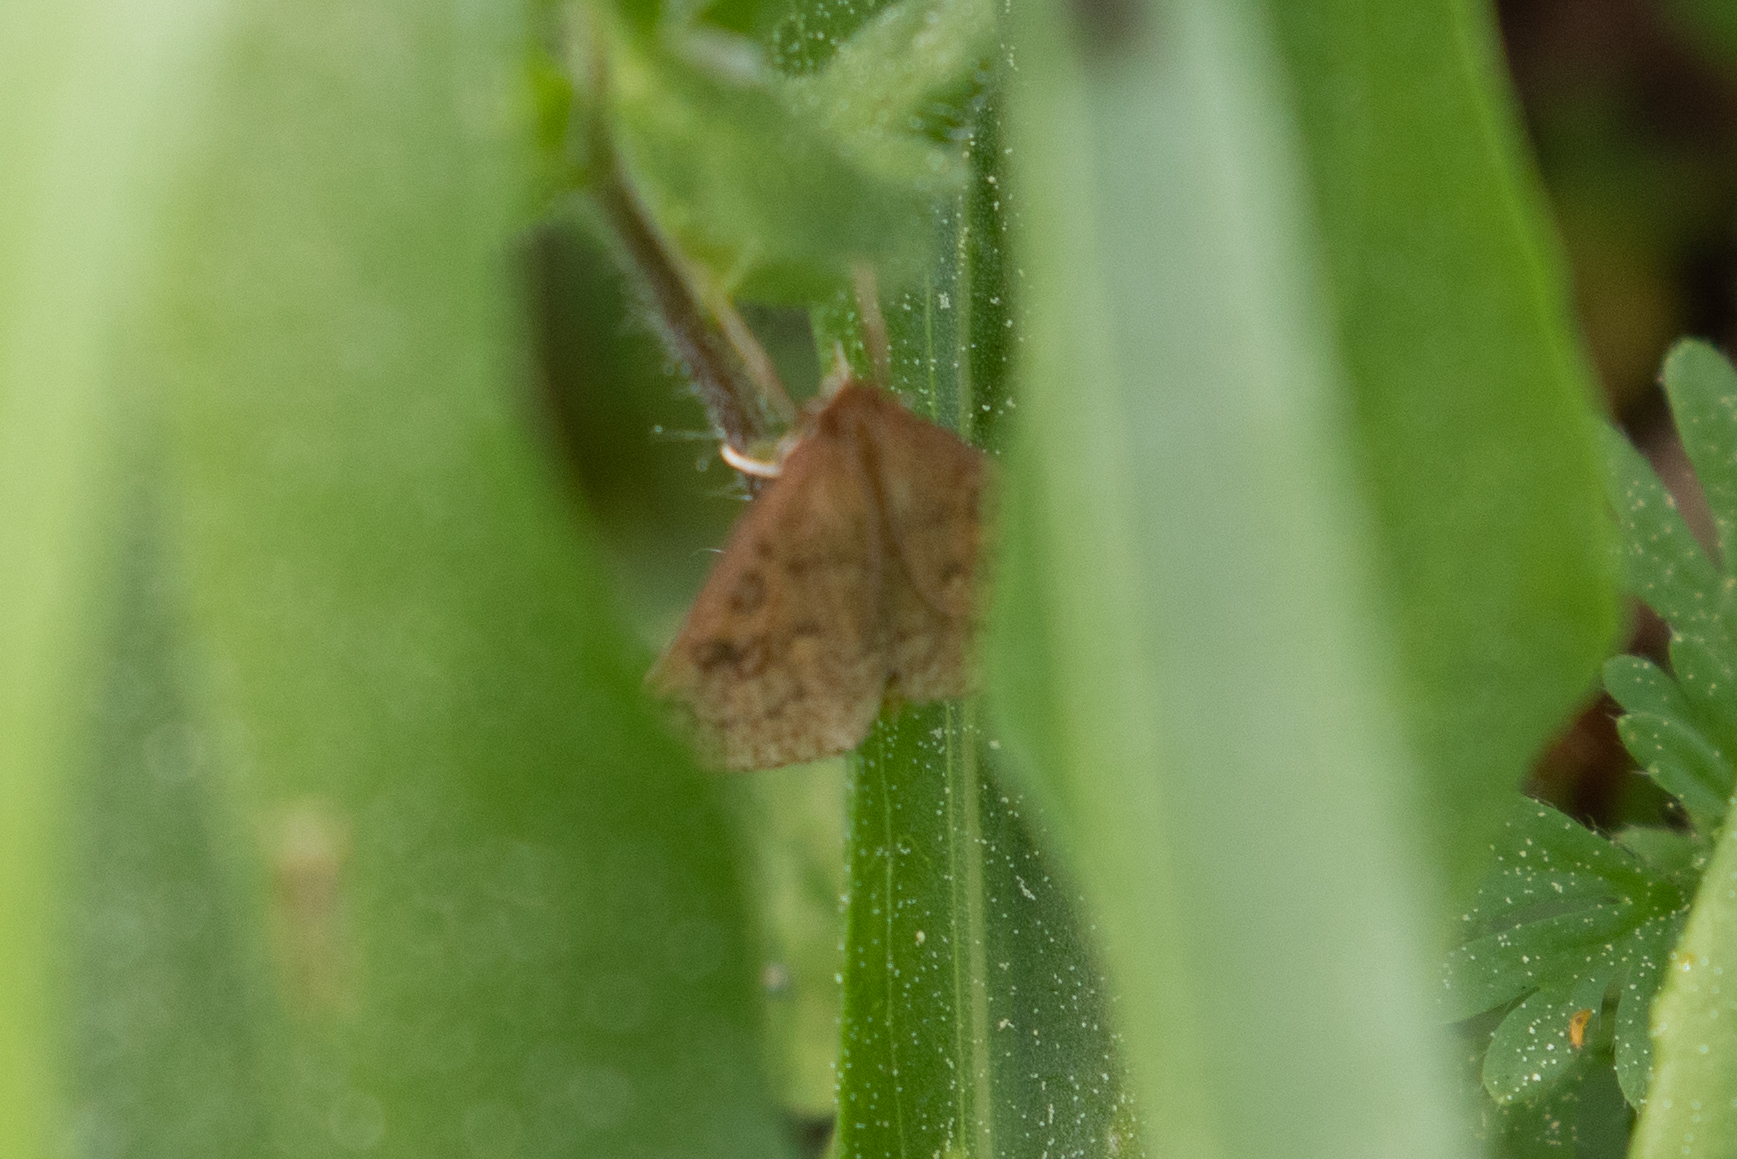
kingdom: Animalia
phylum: Arthropoda
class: Insecta
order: Lepidoptera
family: Crambidae
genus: Udea
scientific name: Udea rubigalis
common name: Celery leaftier moth
